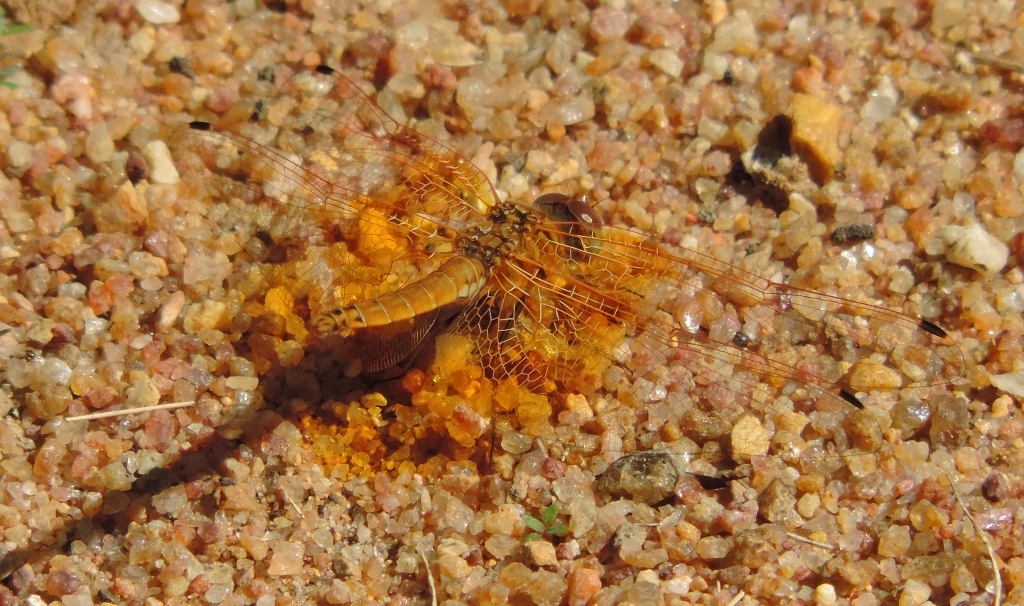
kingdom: Animalia
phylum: Arthropoda
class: Insecta
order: Odonata
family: Libellulidae
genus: Trithemis
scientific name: Trithemis kirbyi
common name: Kirby's dropwing
